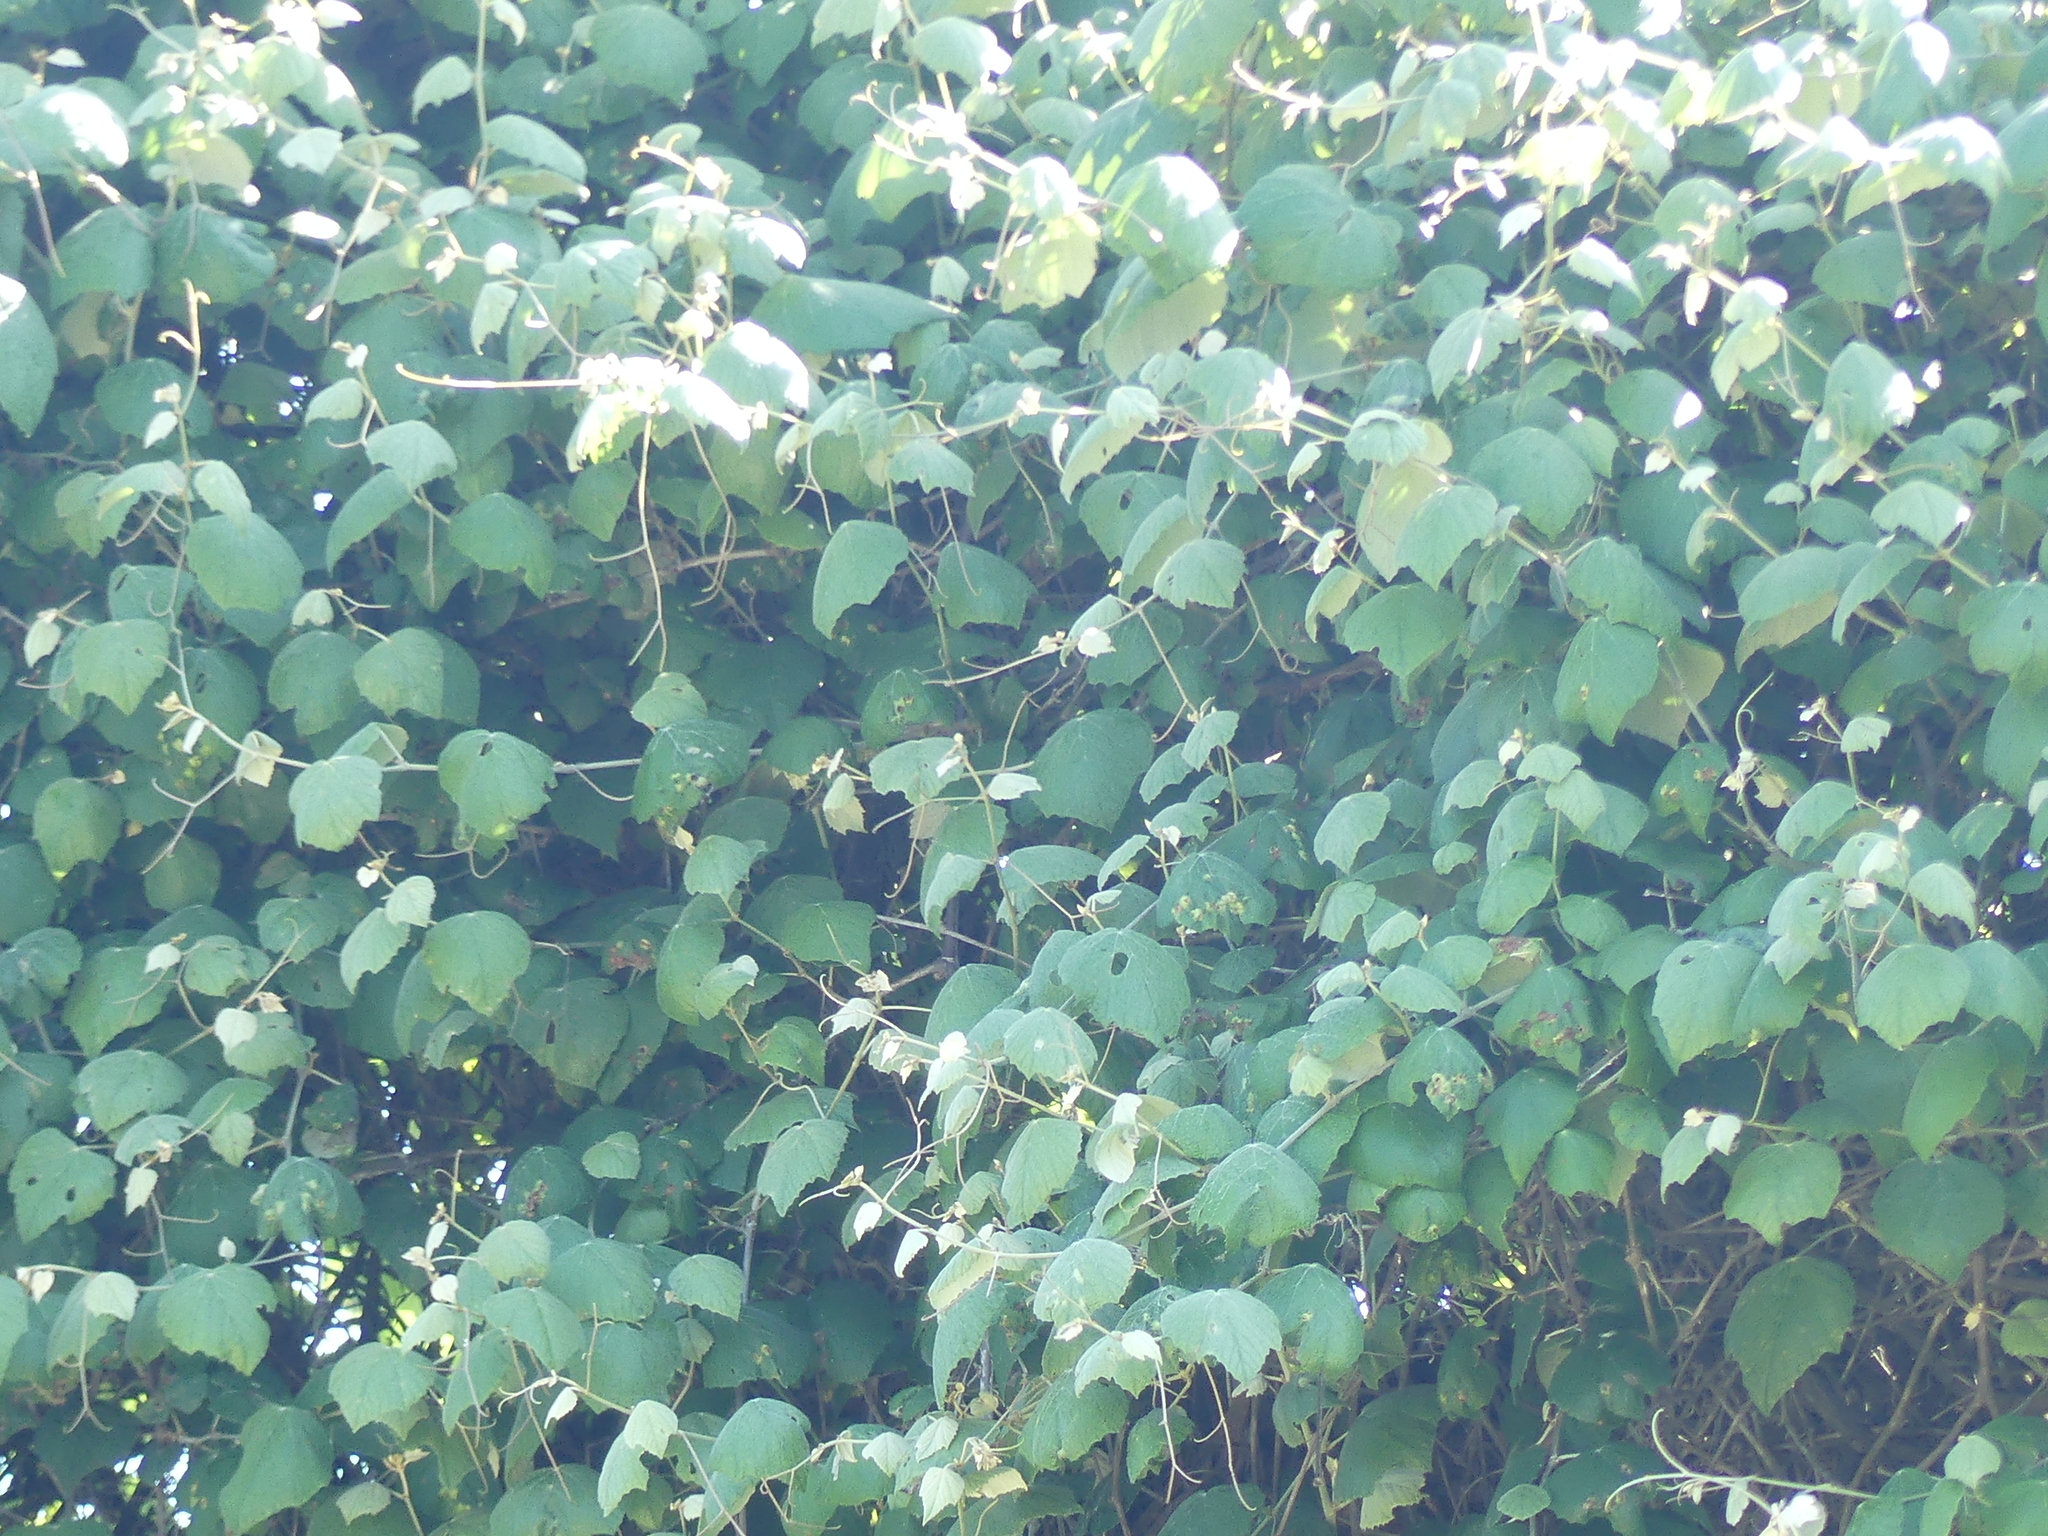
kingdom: Plantae
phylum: Tracheophyta
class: Magnoliopsida
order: Vitales
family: Vitaceae
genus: Vitis
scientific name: Vitis mustangensis
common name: Mustang grape
